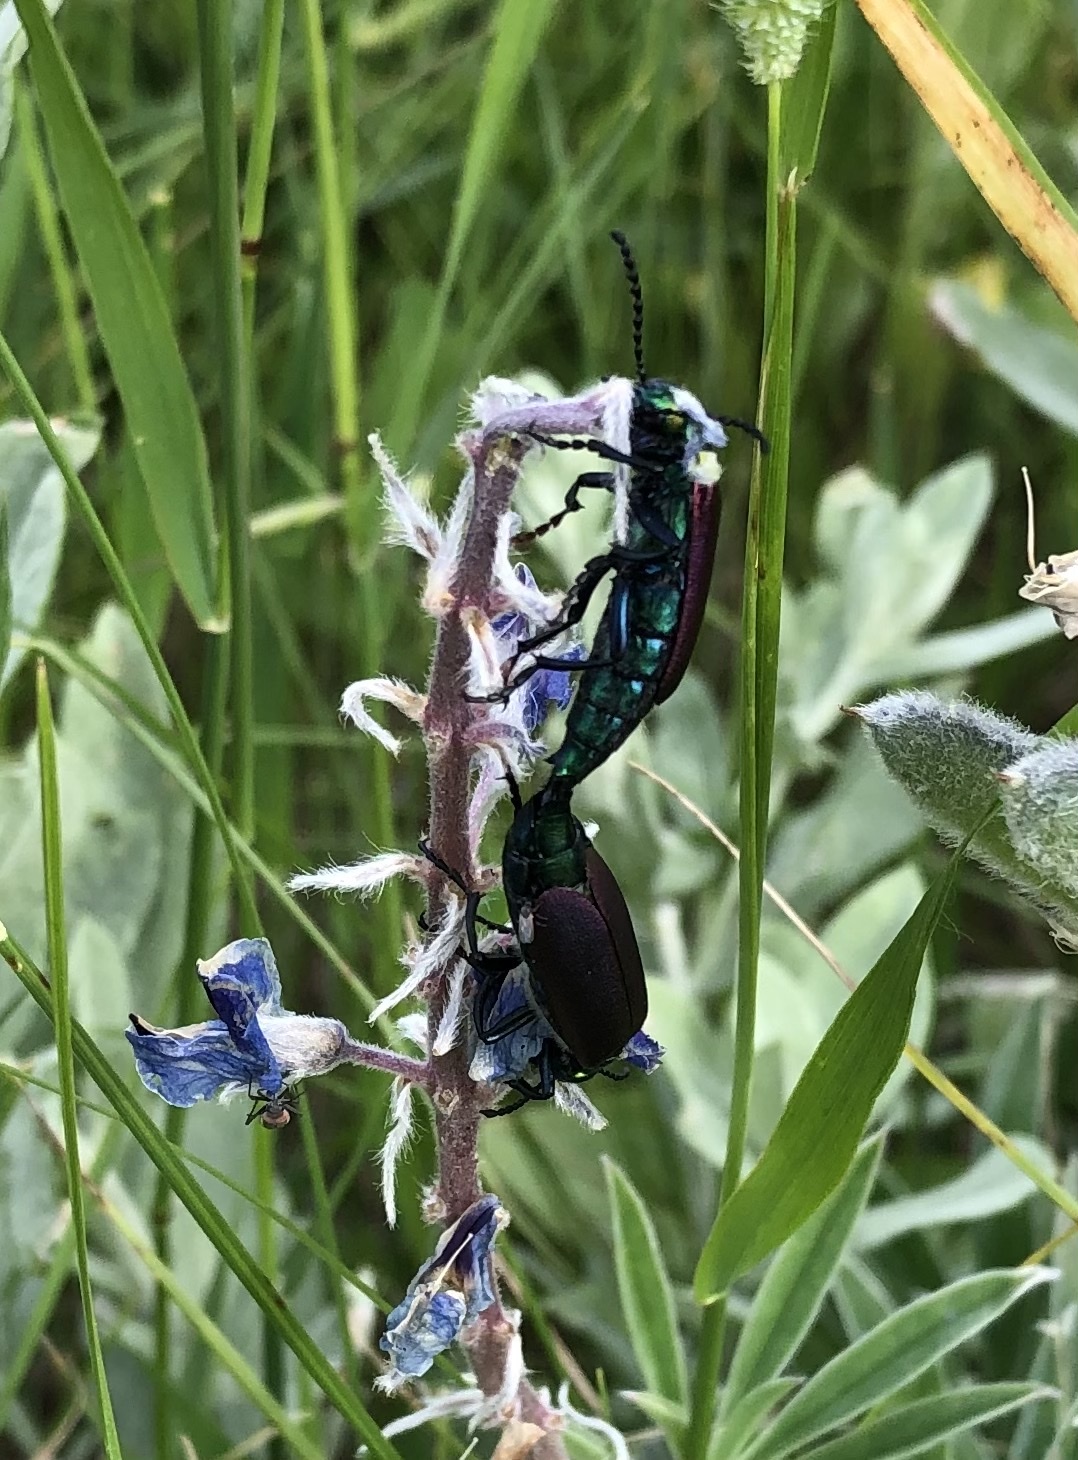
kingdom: Animalia
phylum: Arthropoda
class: Insecta
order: Coleoptera
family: Meloidae
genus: Lytta
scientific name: Lytta nuttallii
